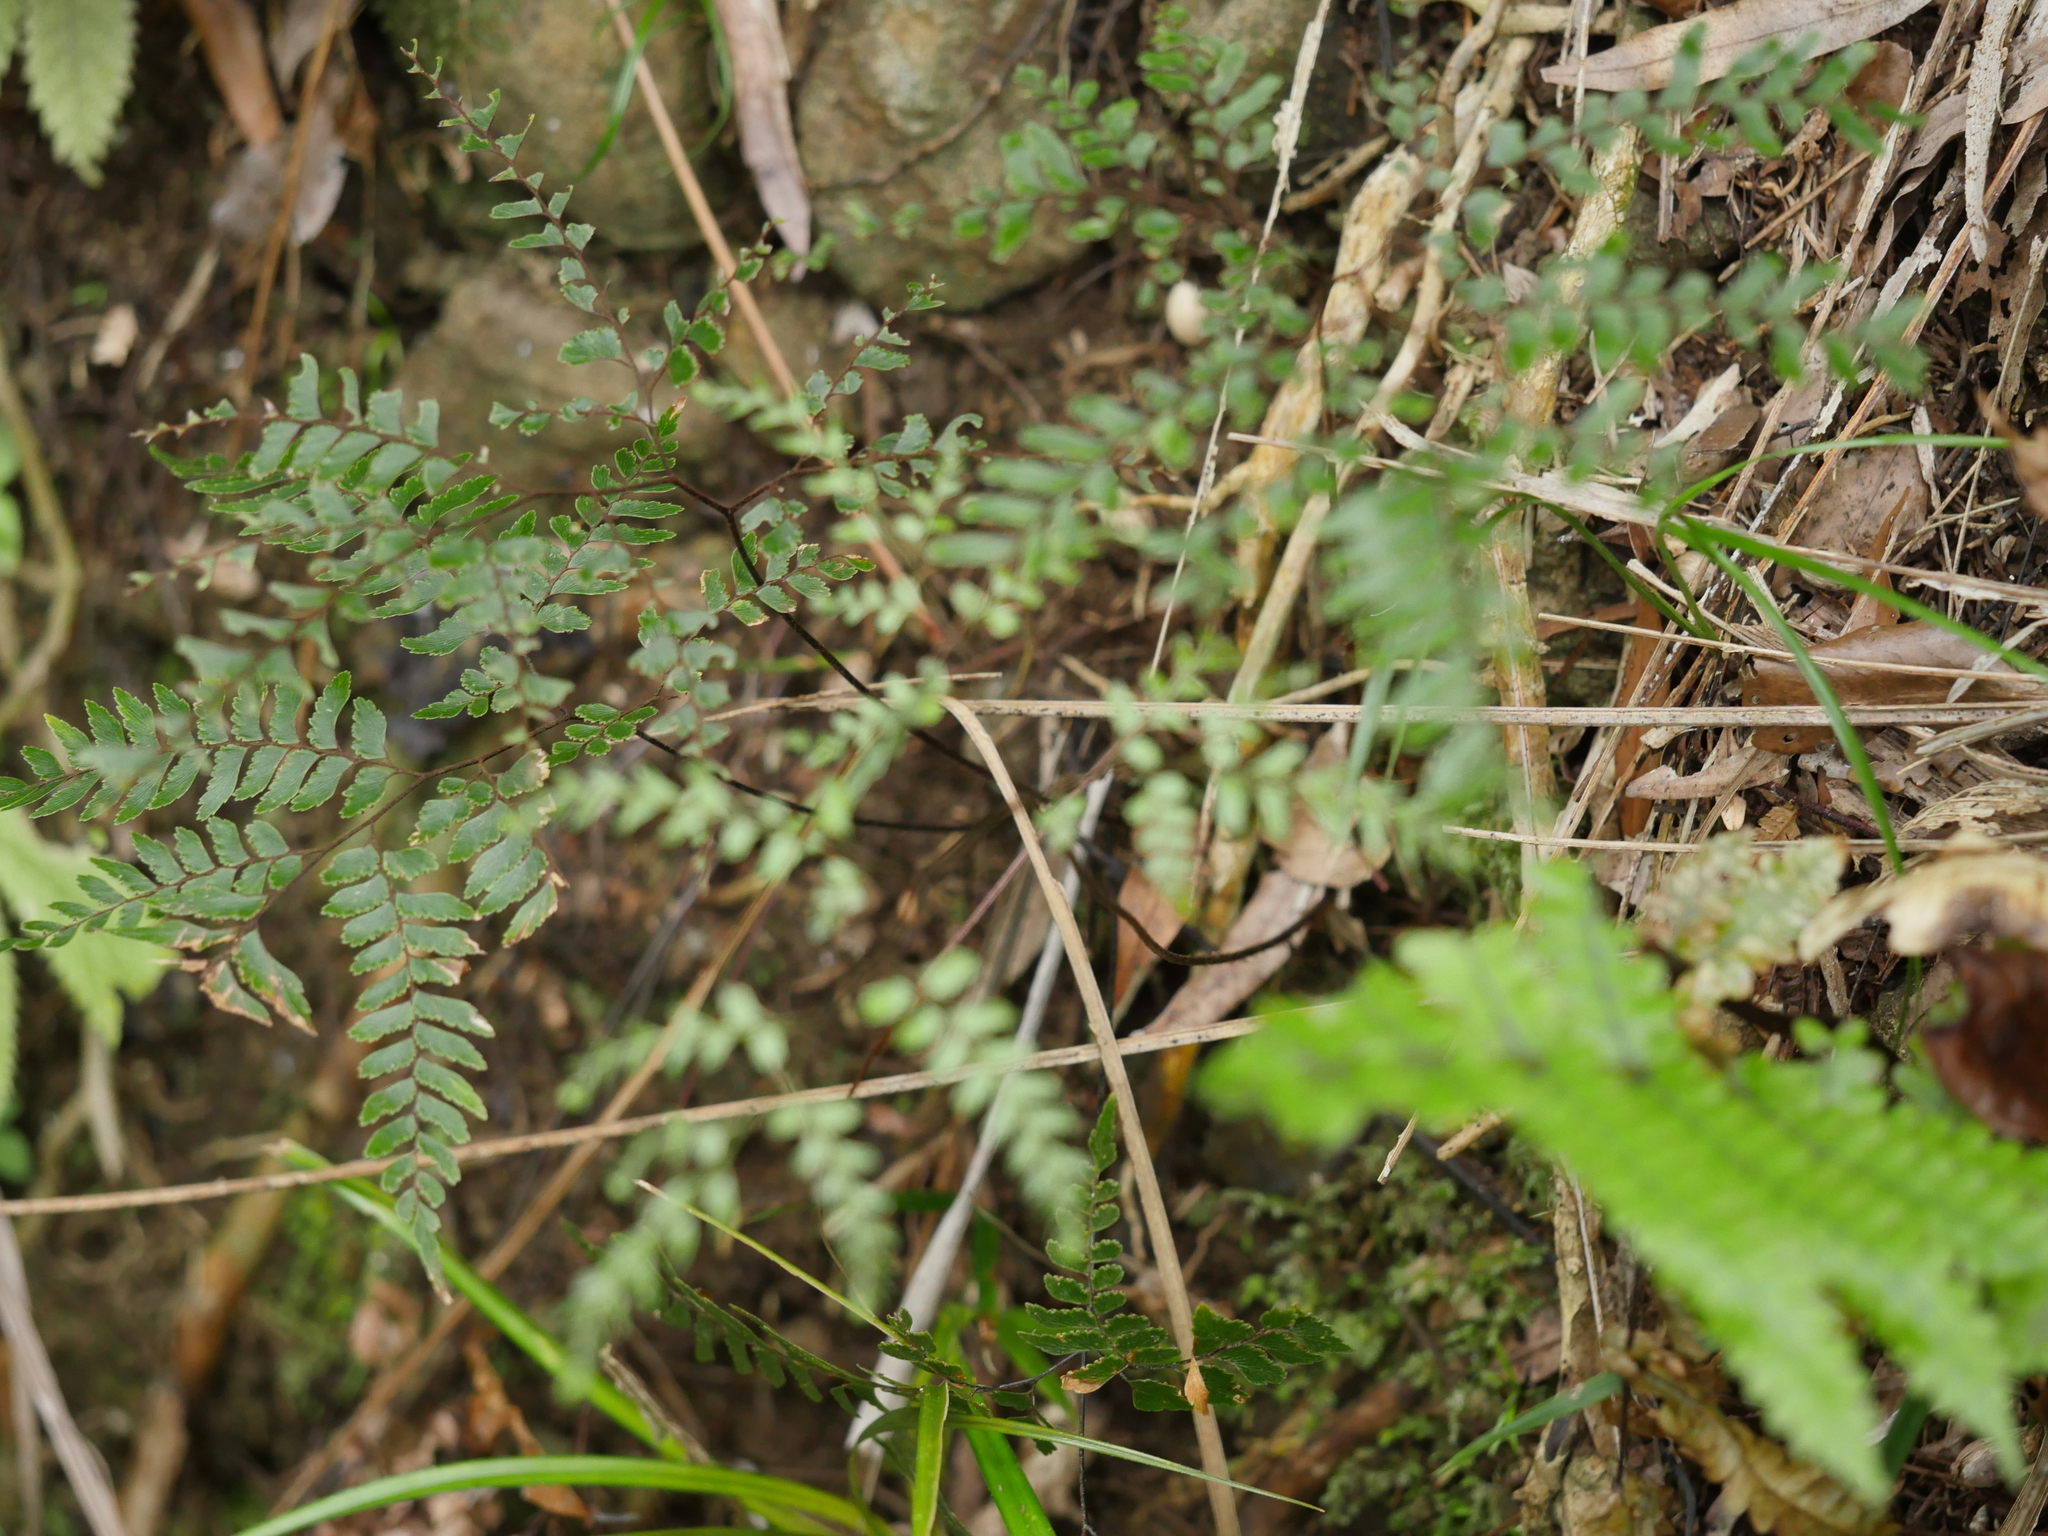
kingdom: Plantae
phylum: Tracheophyta
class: Polypodiopsida
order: Polypodiales
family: Pteridaceae
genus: Adiantum
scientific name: Adiantum fulvum
